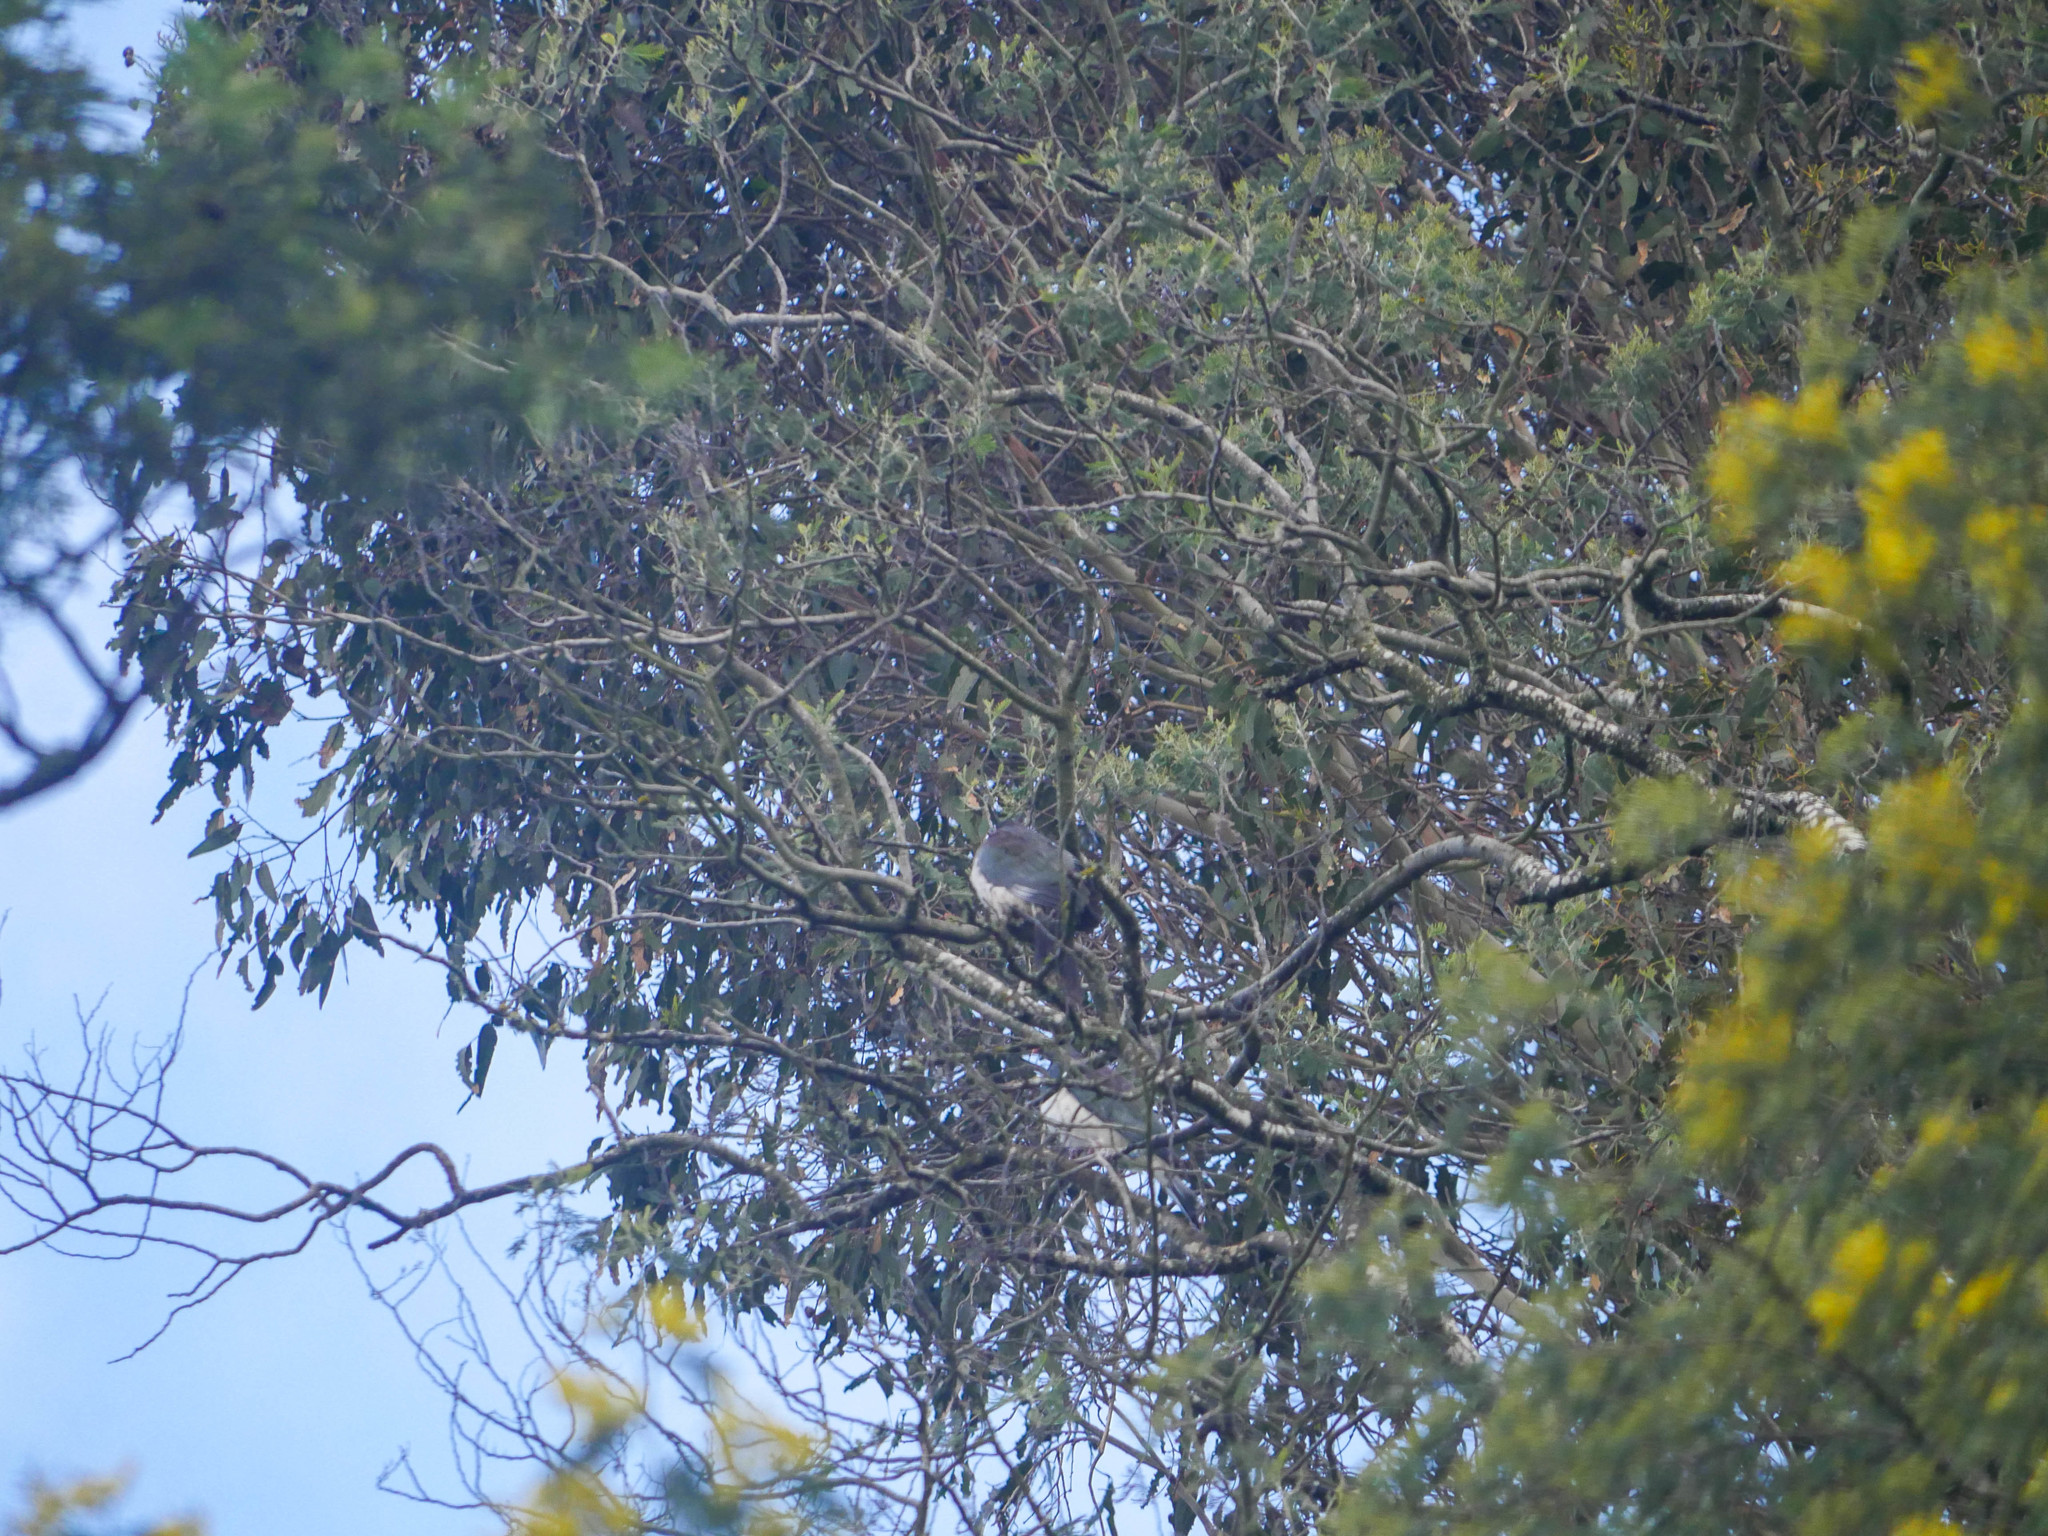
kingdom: Animalia
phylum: Chordata
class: Aves
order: Columbiformes
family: Columbidae
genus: Hemiphaga
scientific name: Hemiphaga novaeseelandiae
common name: New zealand pigeon
